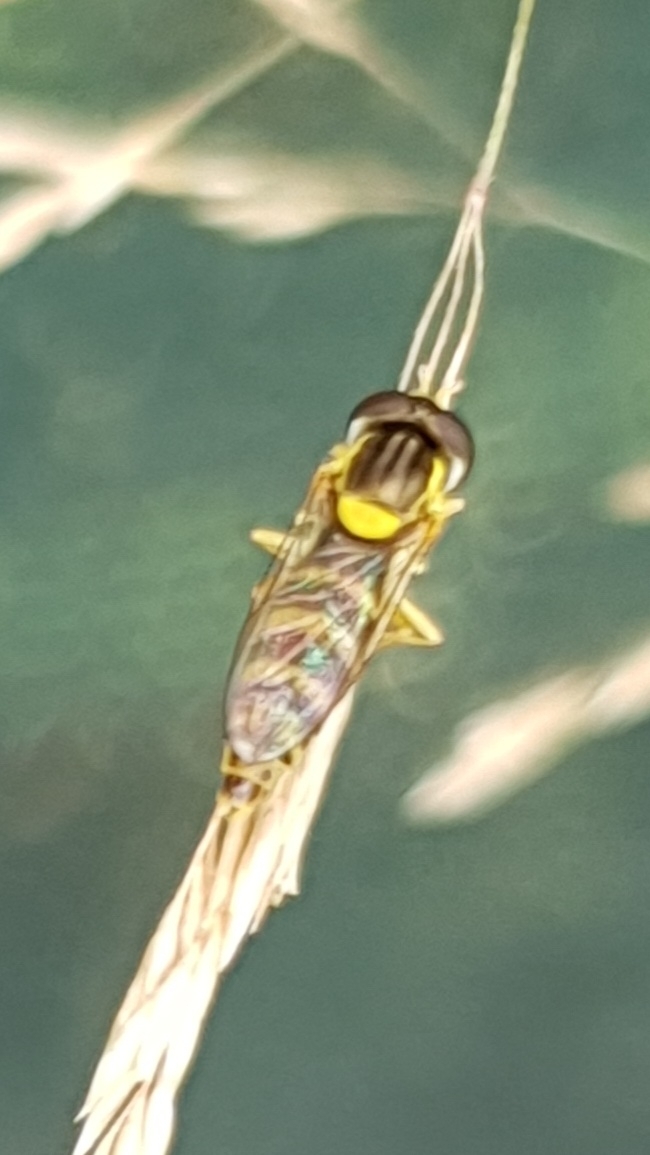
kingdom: Animalia
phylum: Arthropoda
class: Insecta
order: Diptera
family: Syrphidae
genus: Sphaerophoria
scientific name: Sphaerophoria
